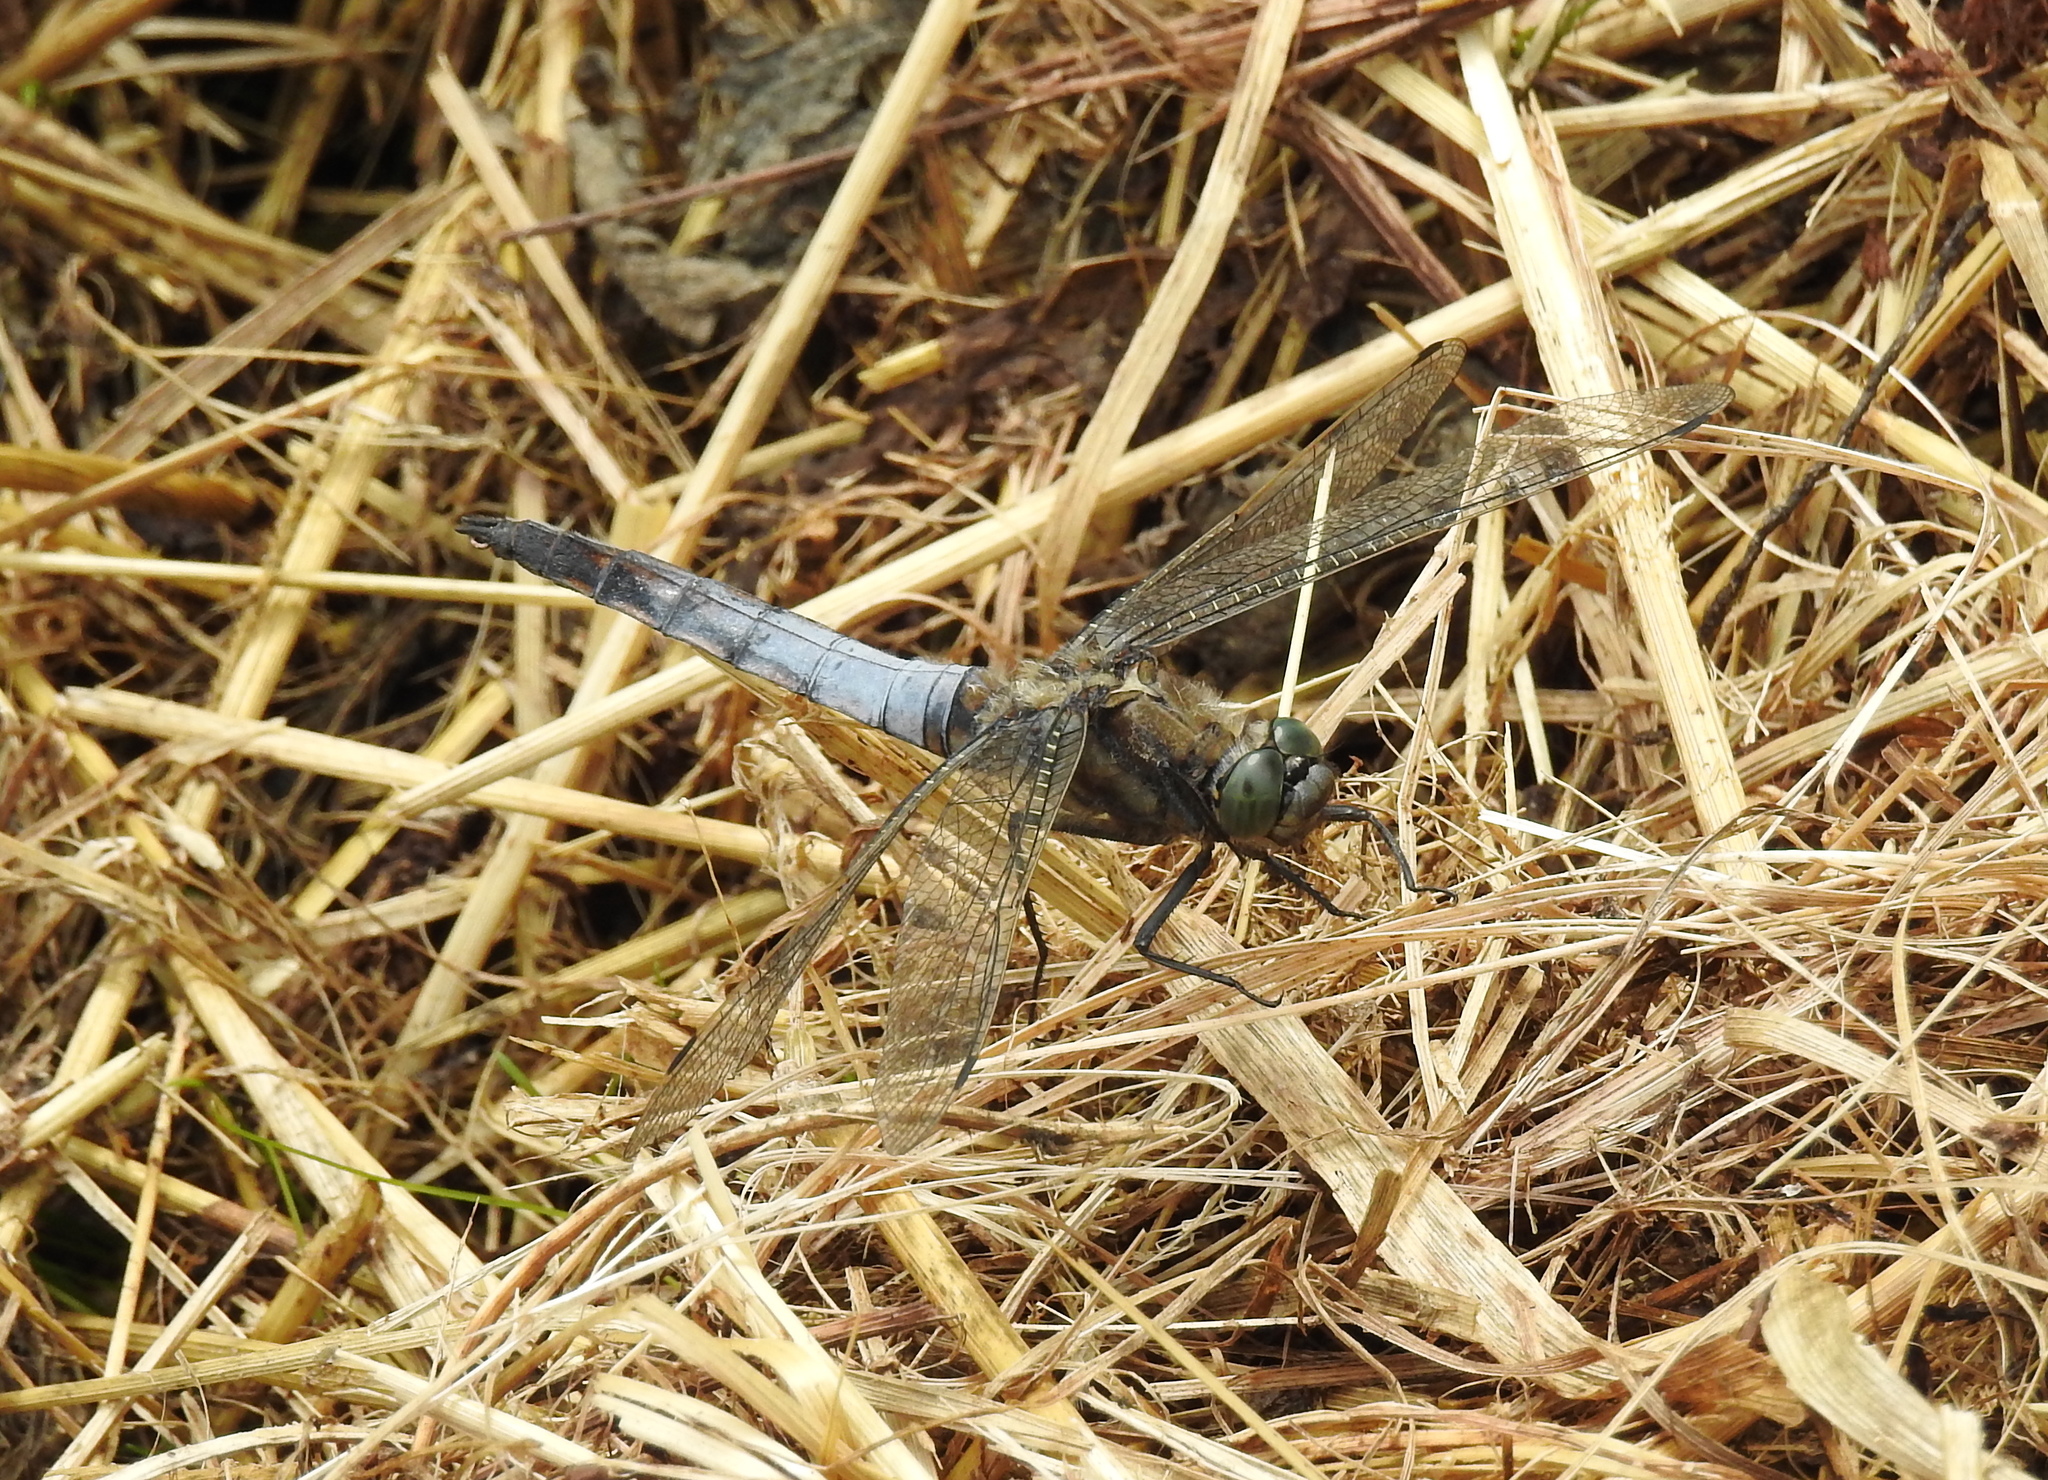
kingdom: Animalia
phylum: Arthropoda
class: Insecta
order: Odonata
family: Libellulidae
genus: Orthetrum
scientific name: Orthetrum cancellatum
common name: Black-tailed skimmer
